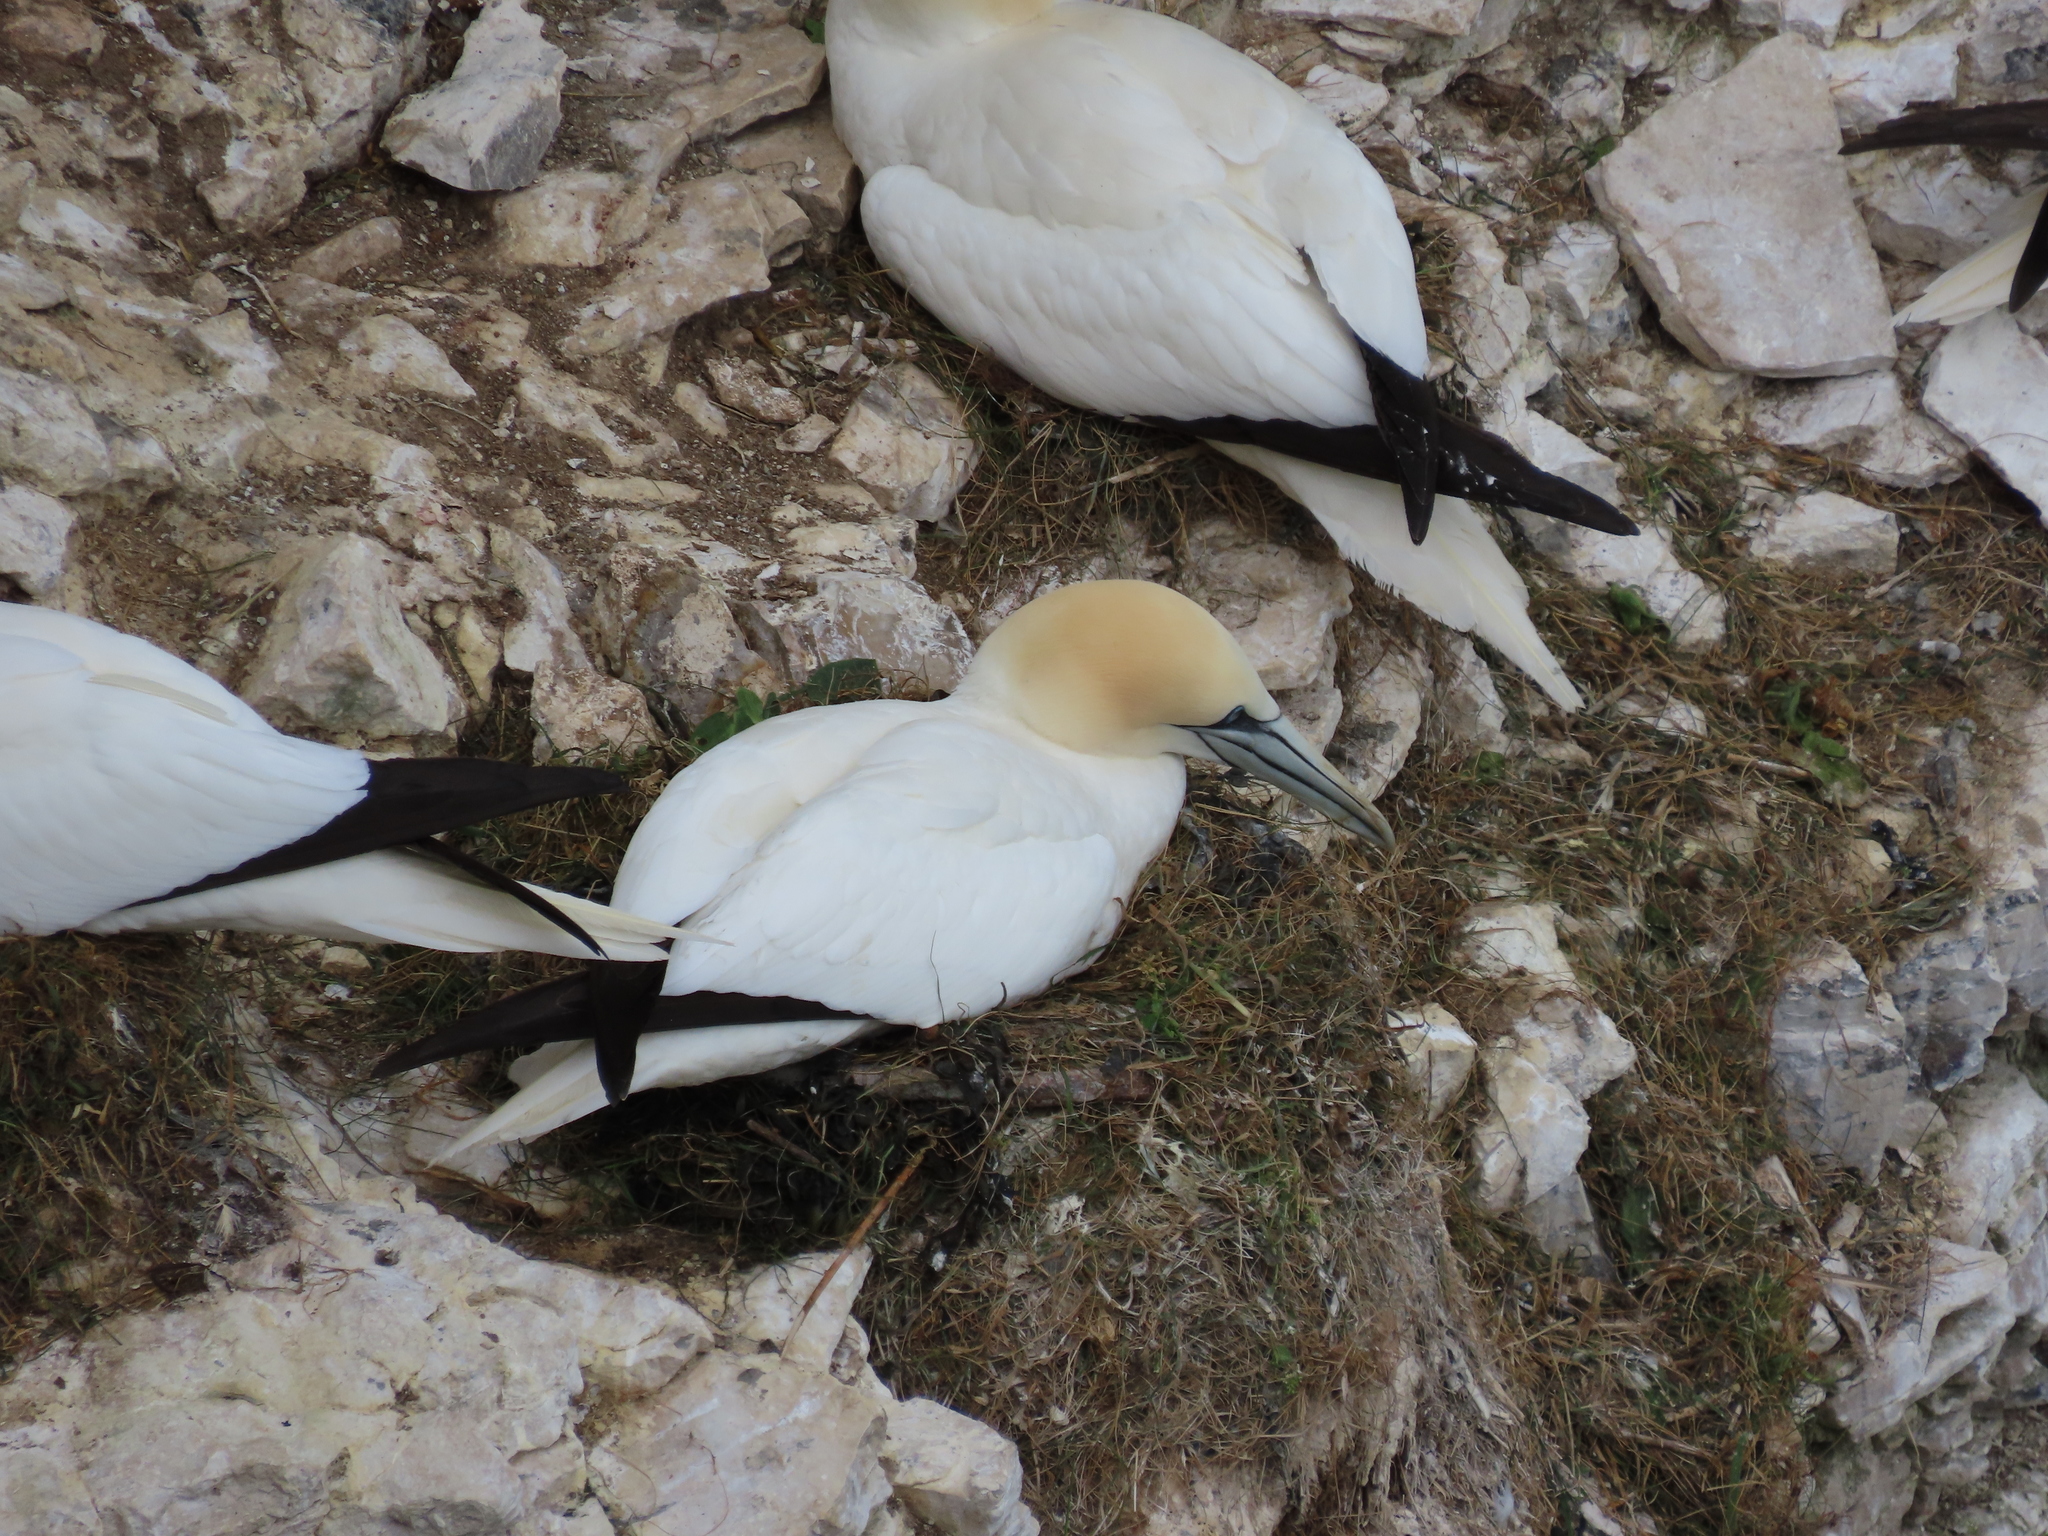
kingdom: Animalia
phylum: Chordata
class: Aves
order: Suliformes
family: Sulidae
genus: Morus
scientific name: Morus bassanus
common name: Northern gannet
